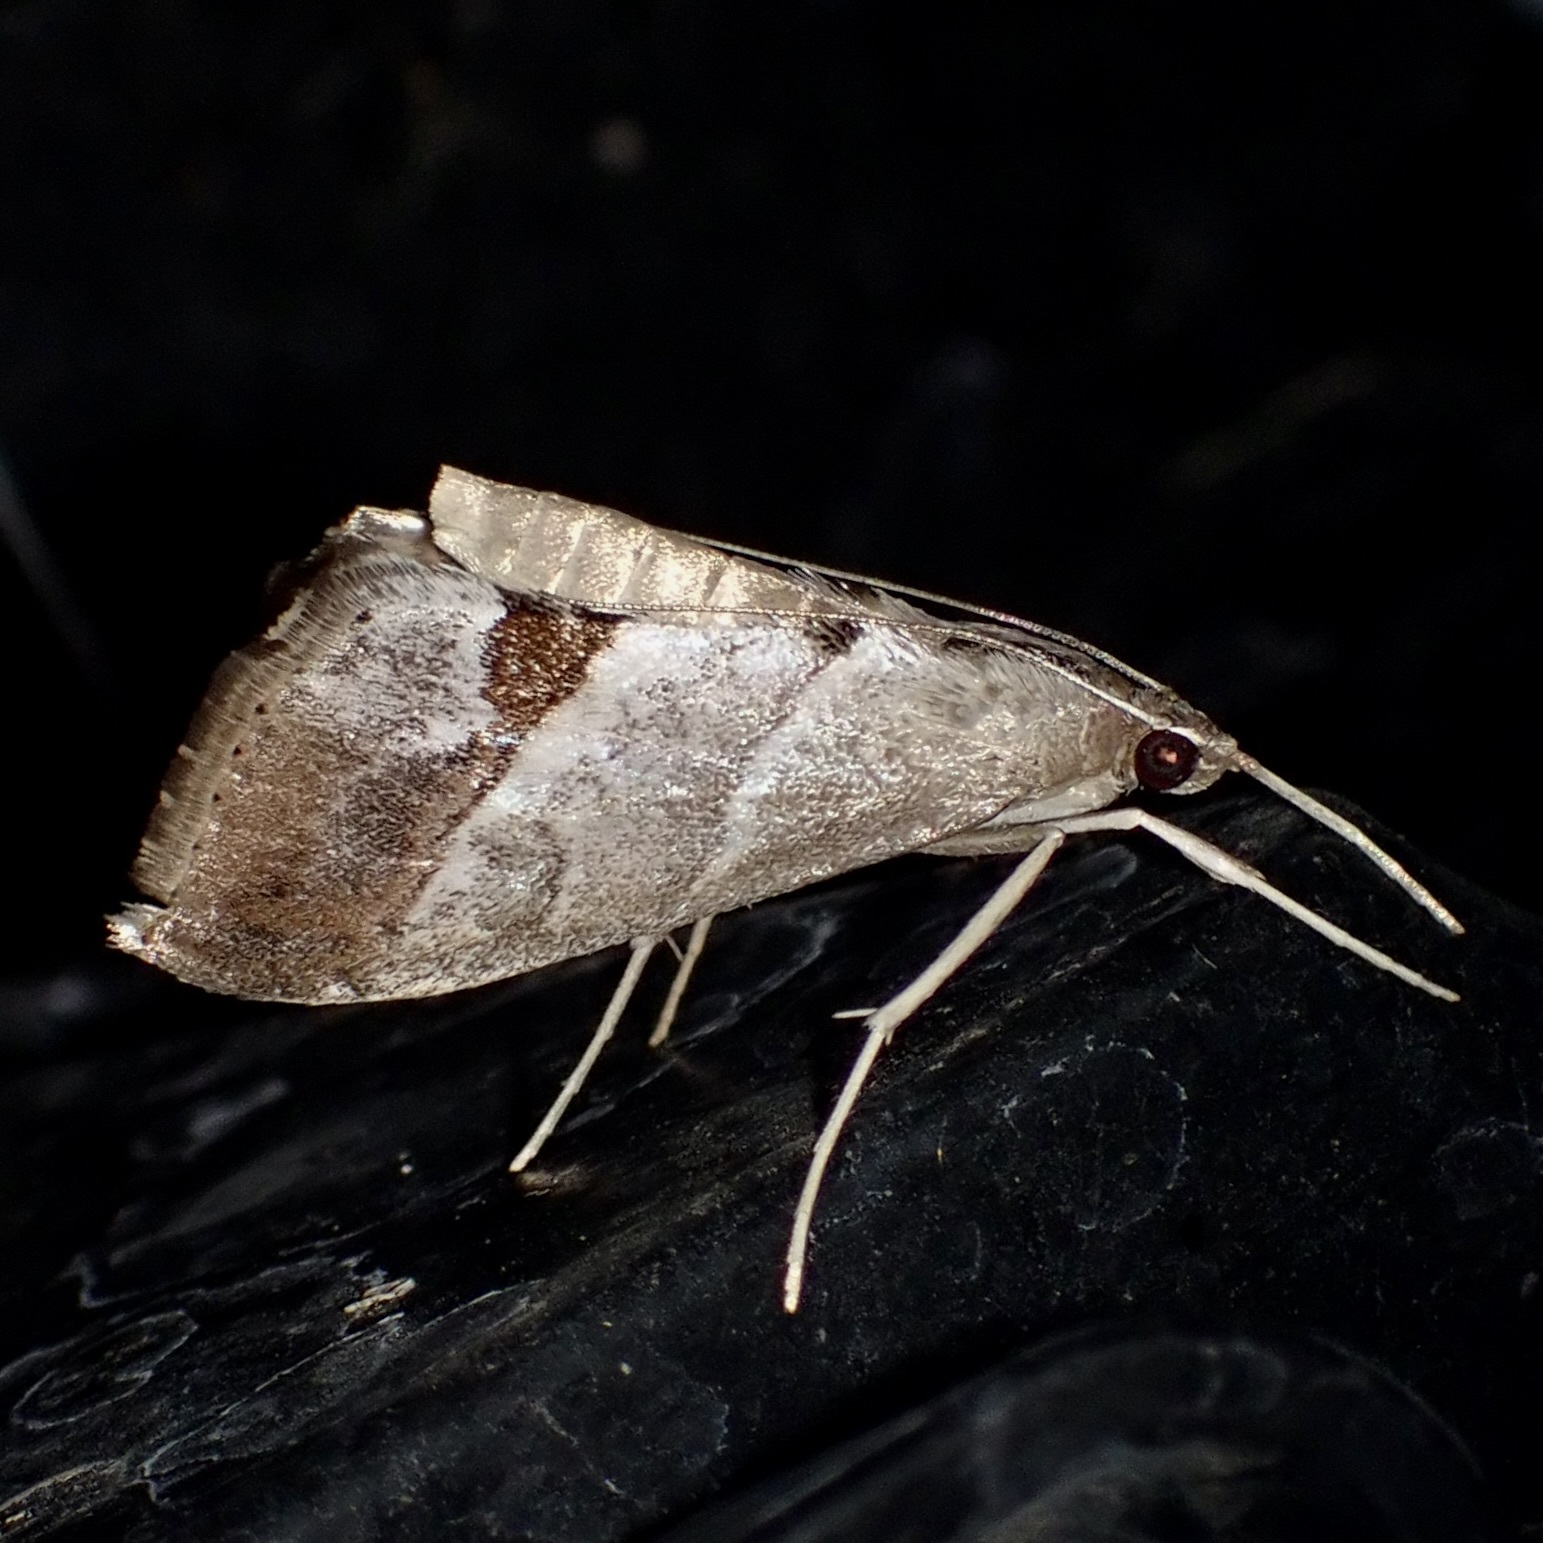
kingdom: Animalia
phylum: Arthropoda
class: Insecta
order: Lepidoptera
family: Crambidae
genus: Evergestis
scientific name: Evergestis triangulalis
